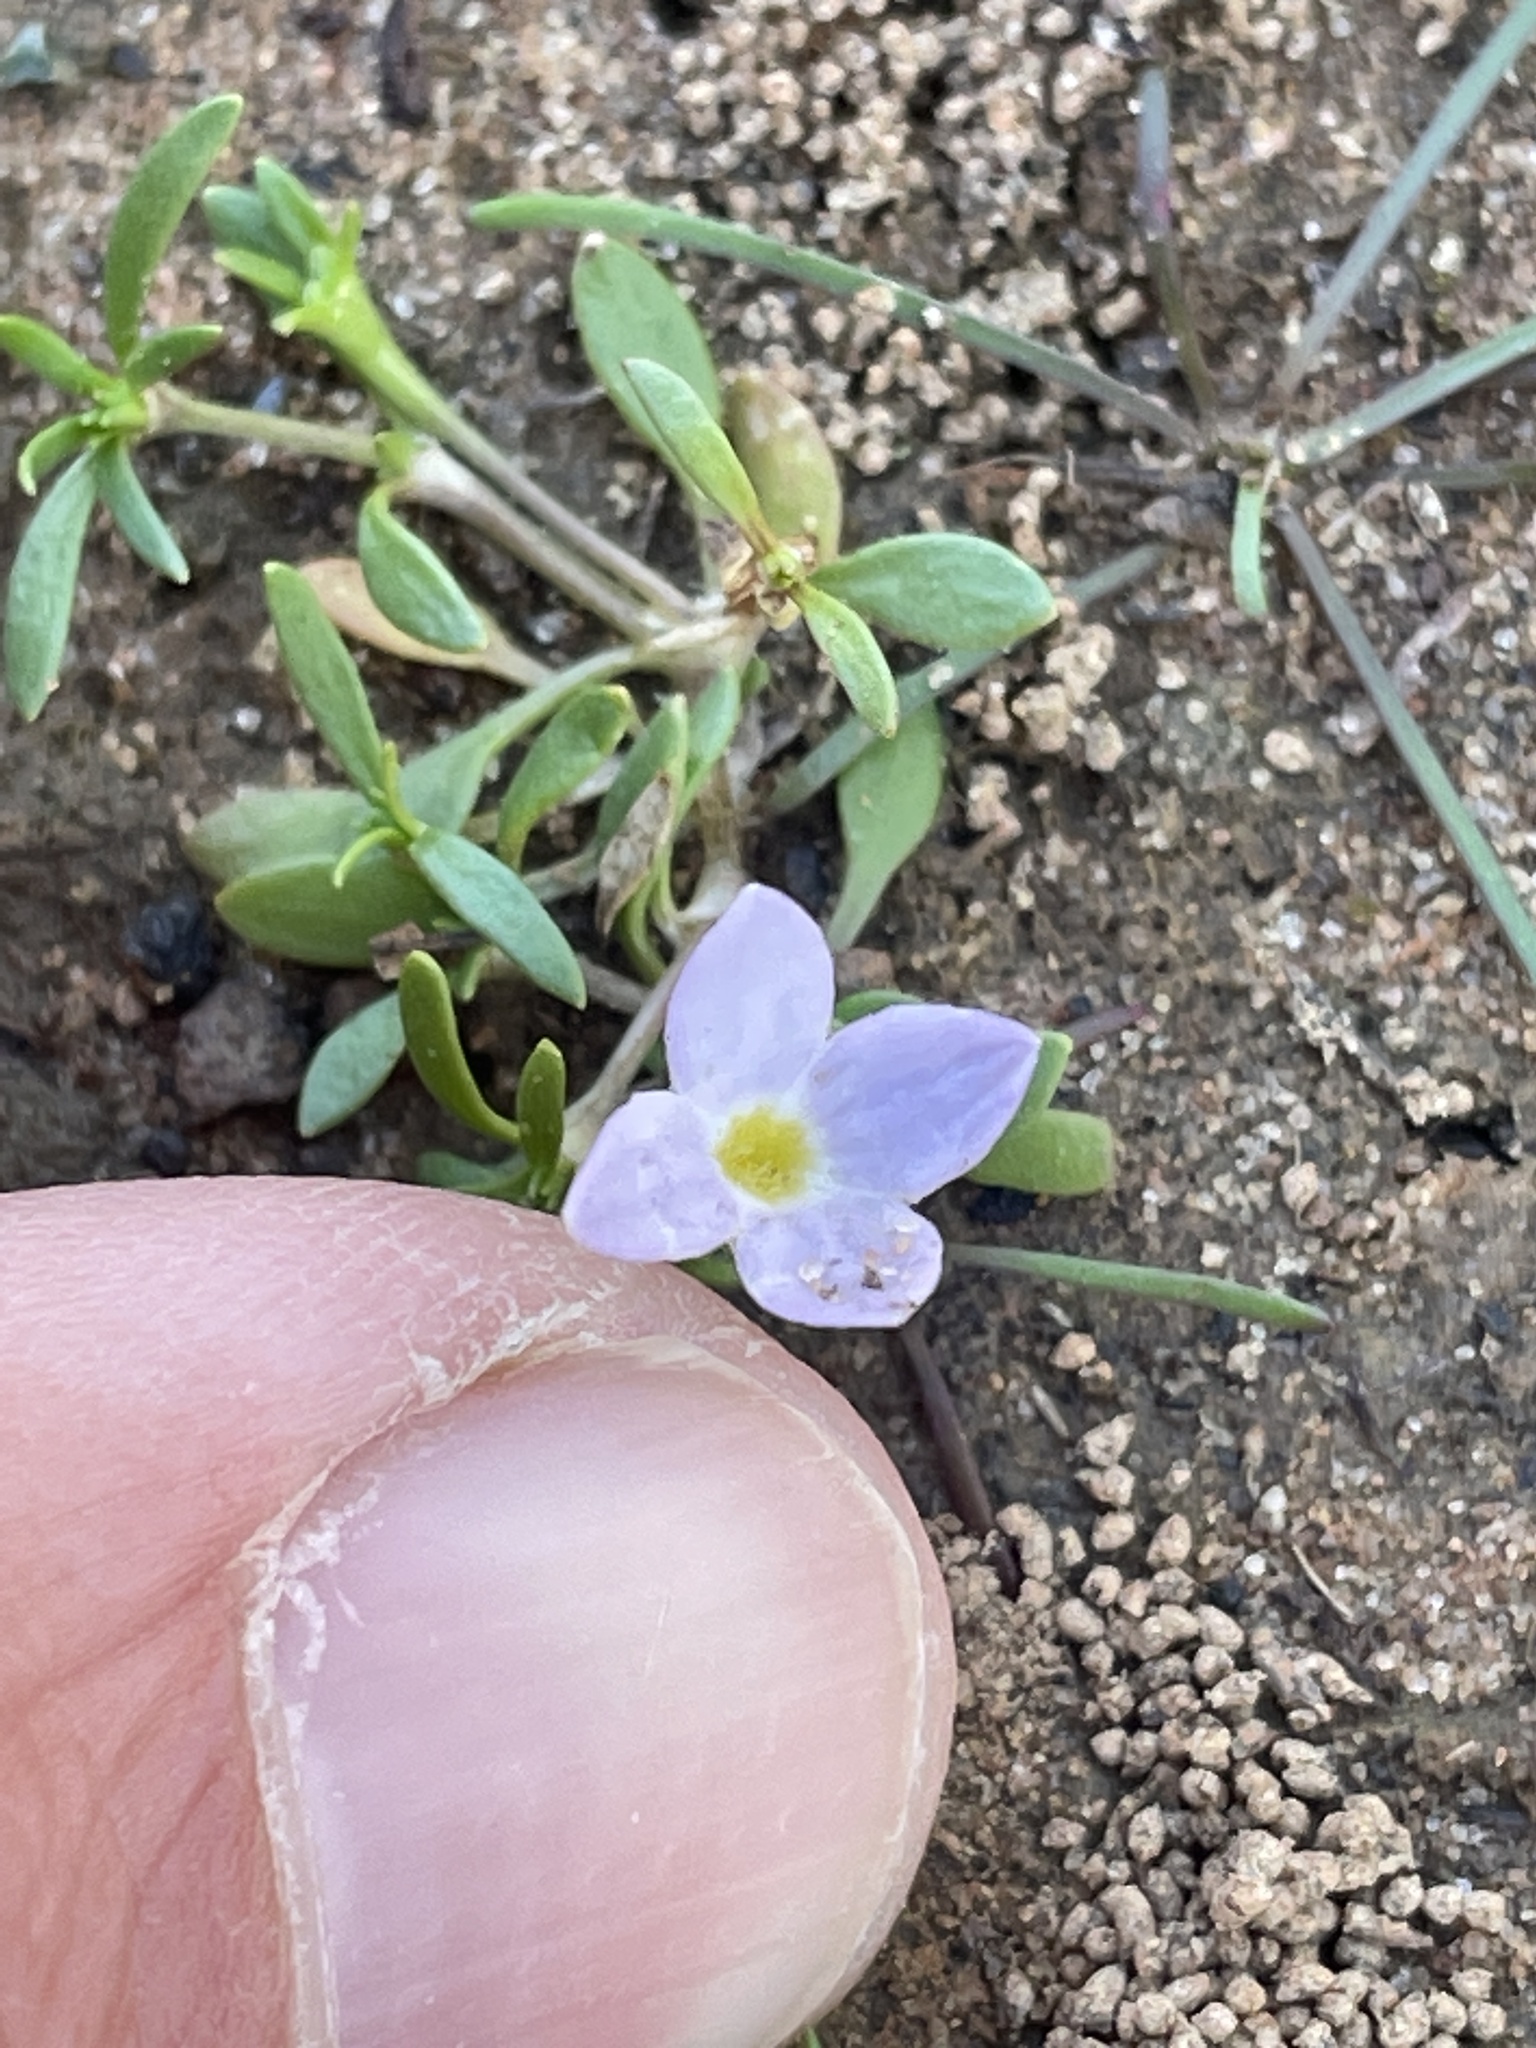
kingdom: Plantae
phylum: Tracheophyta
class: Magnoliopsida
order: Gentianales
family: Rubiaceae
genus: Houstonia
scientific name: Houstonia rosea
